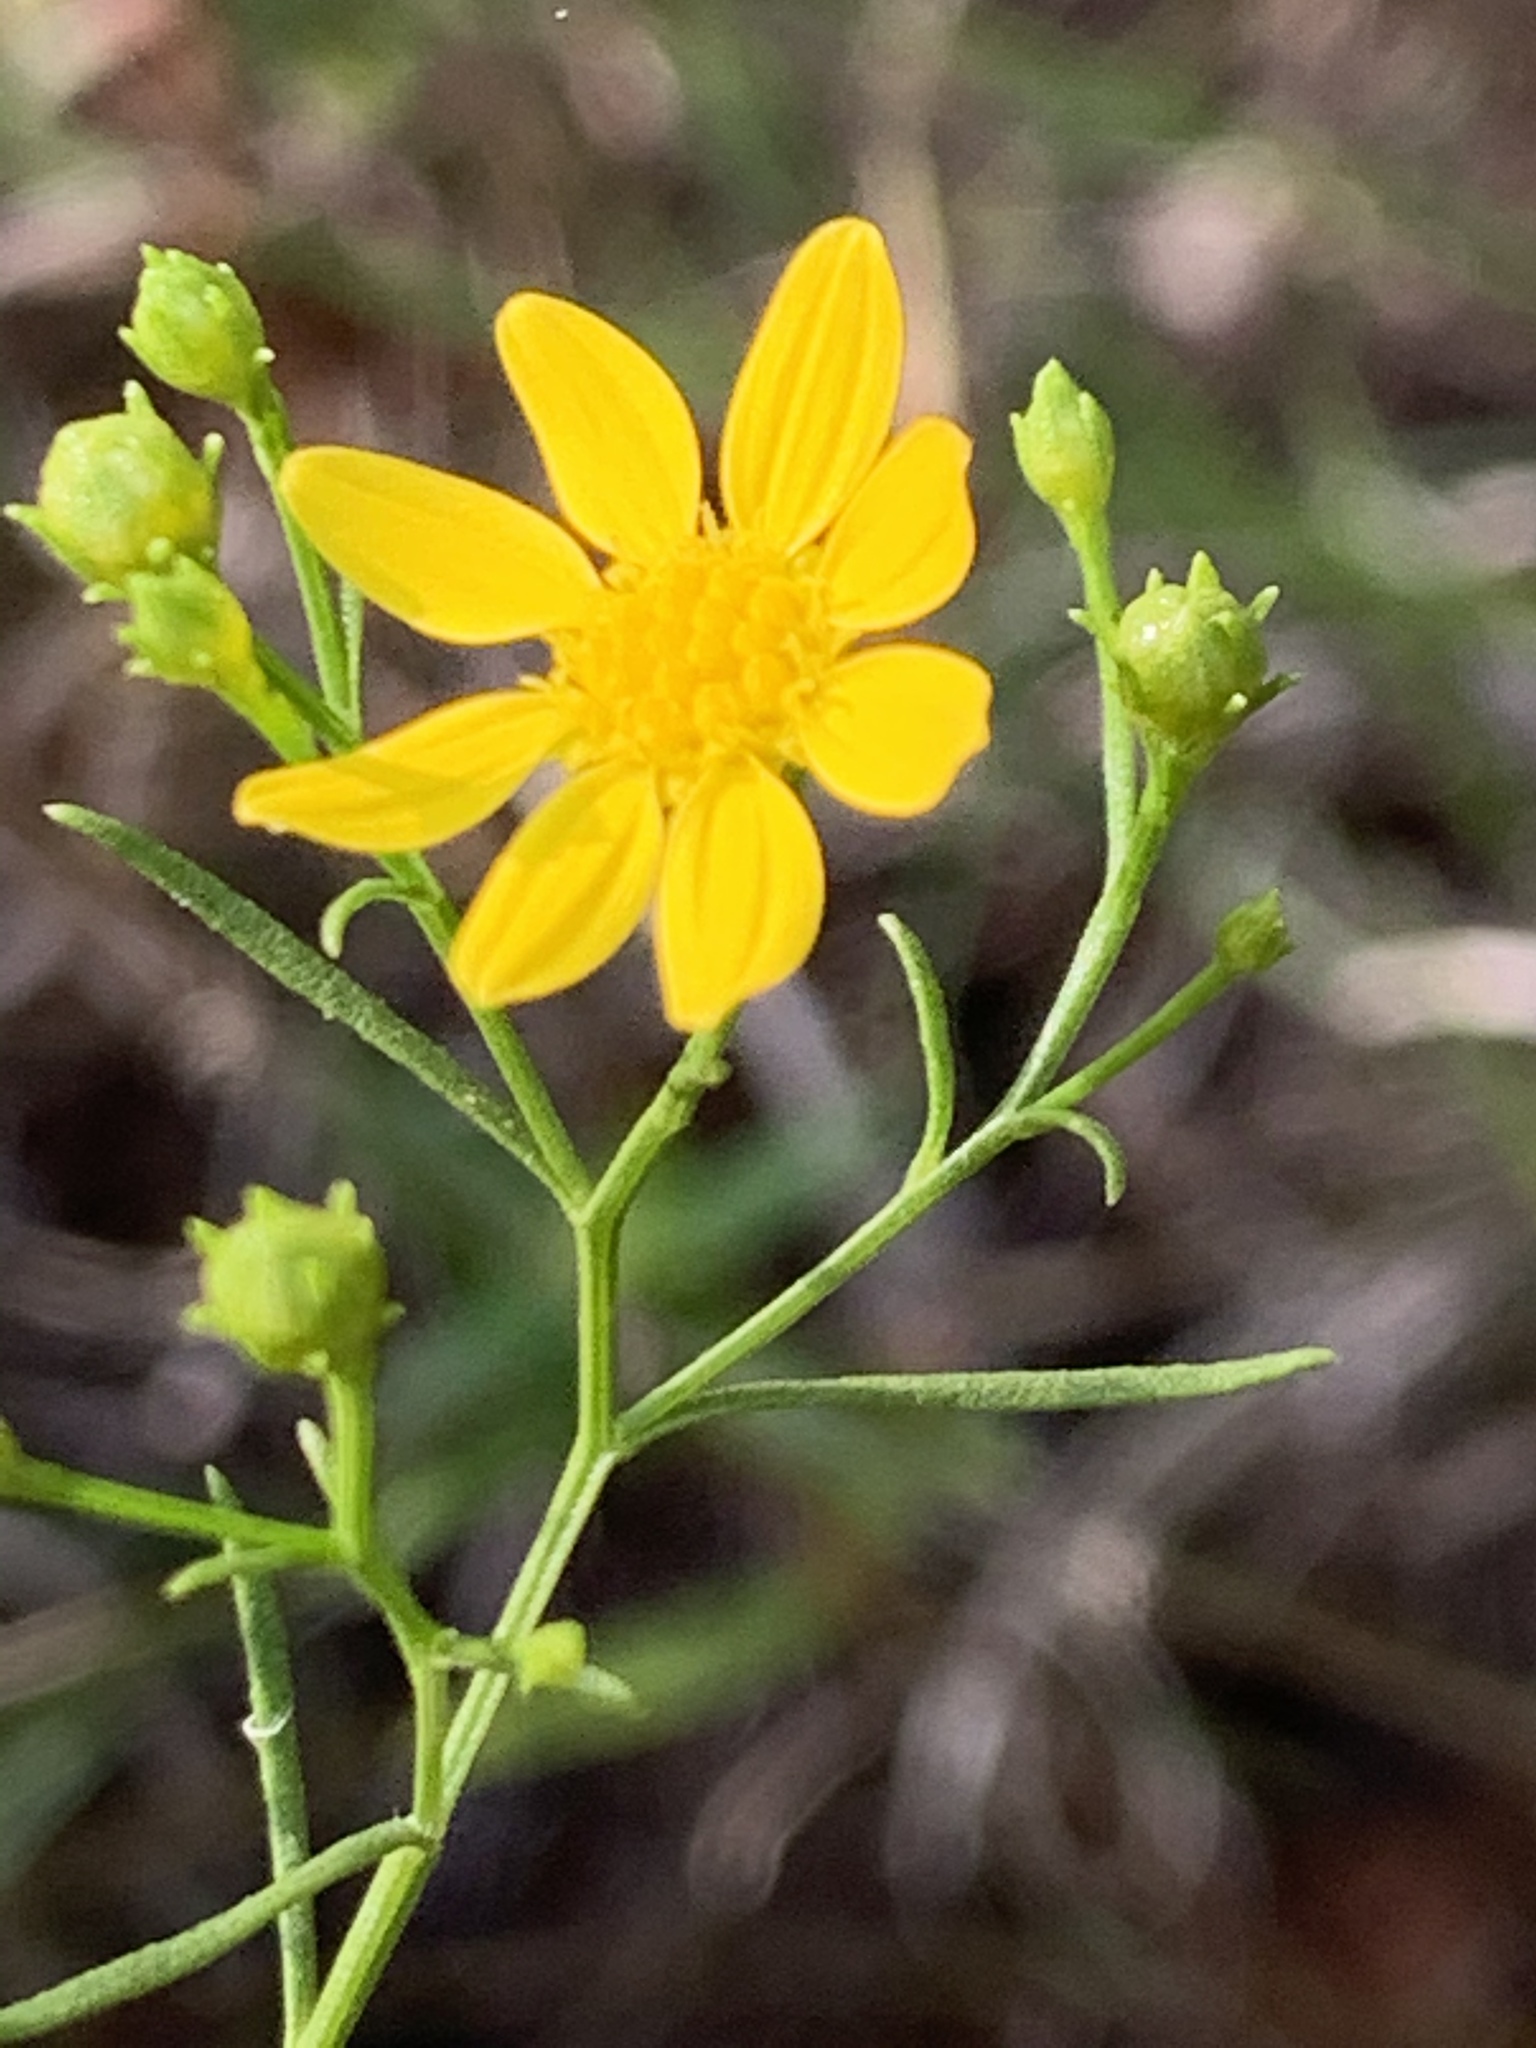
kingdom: Plantae
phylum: Tracheophyta
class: Magnoliopsida
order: Asterales
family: Asteraceae
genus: Amphiachyris
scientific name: Amphiachyris dracunculoides
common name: Broomweed
